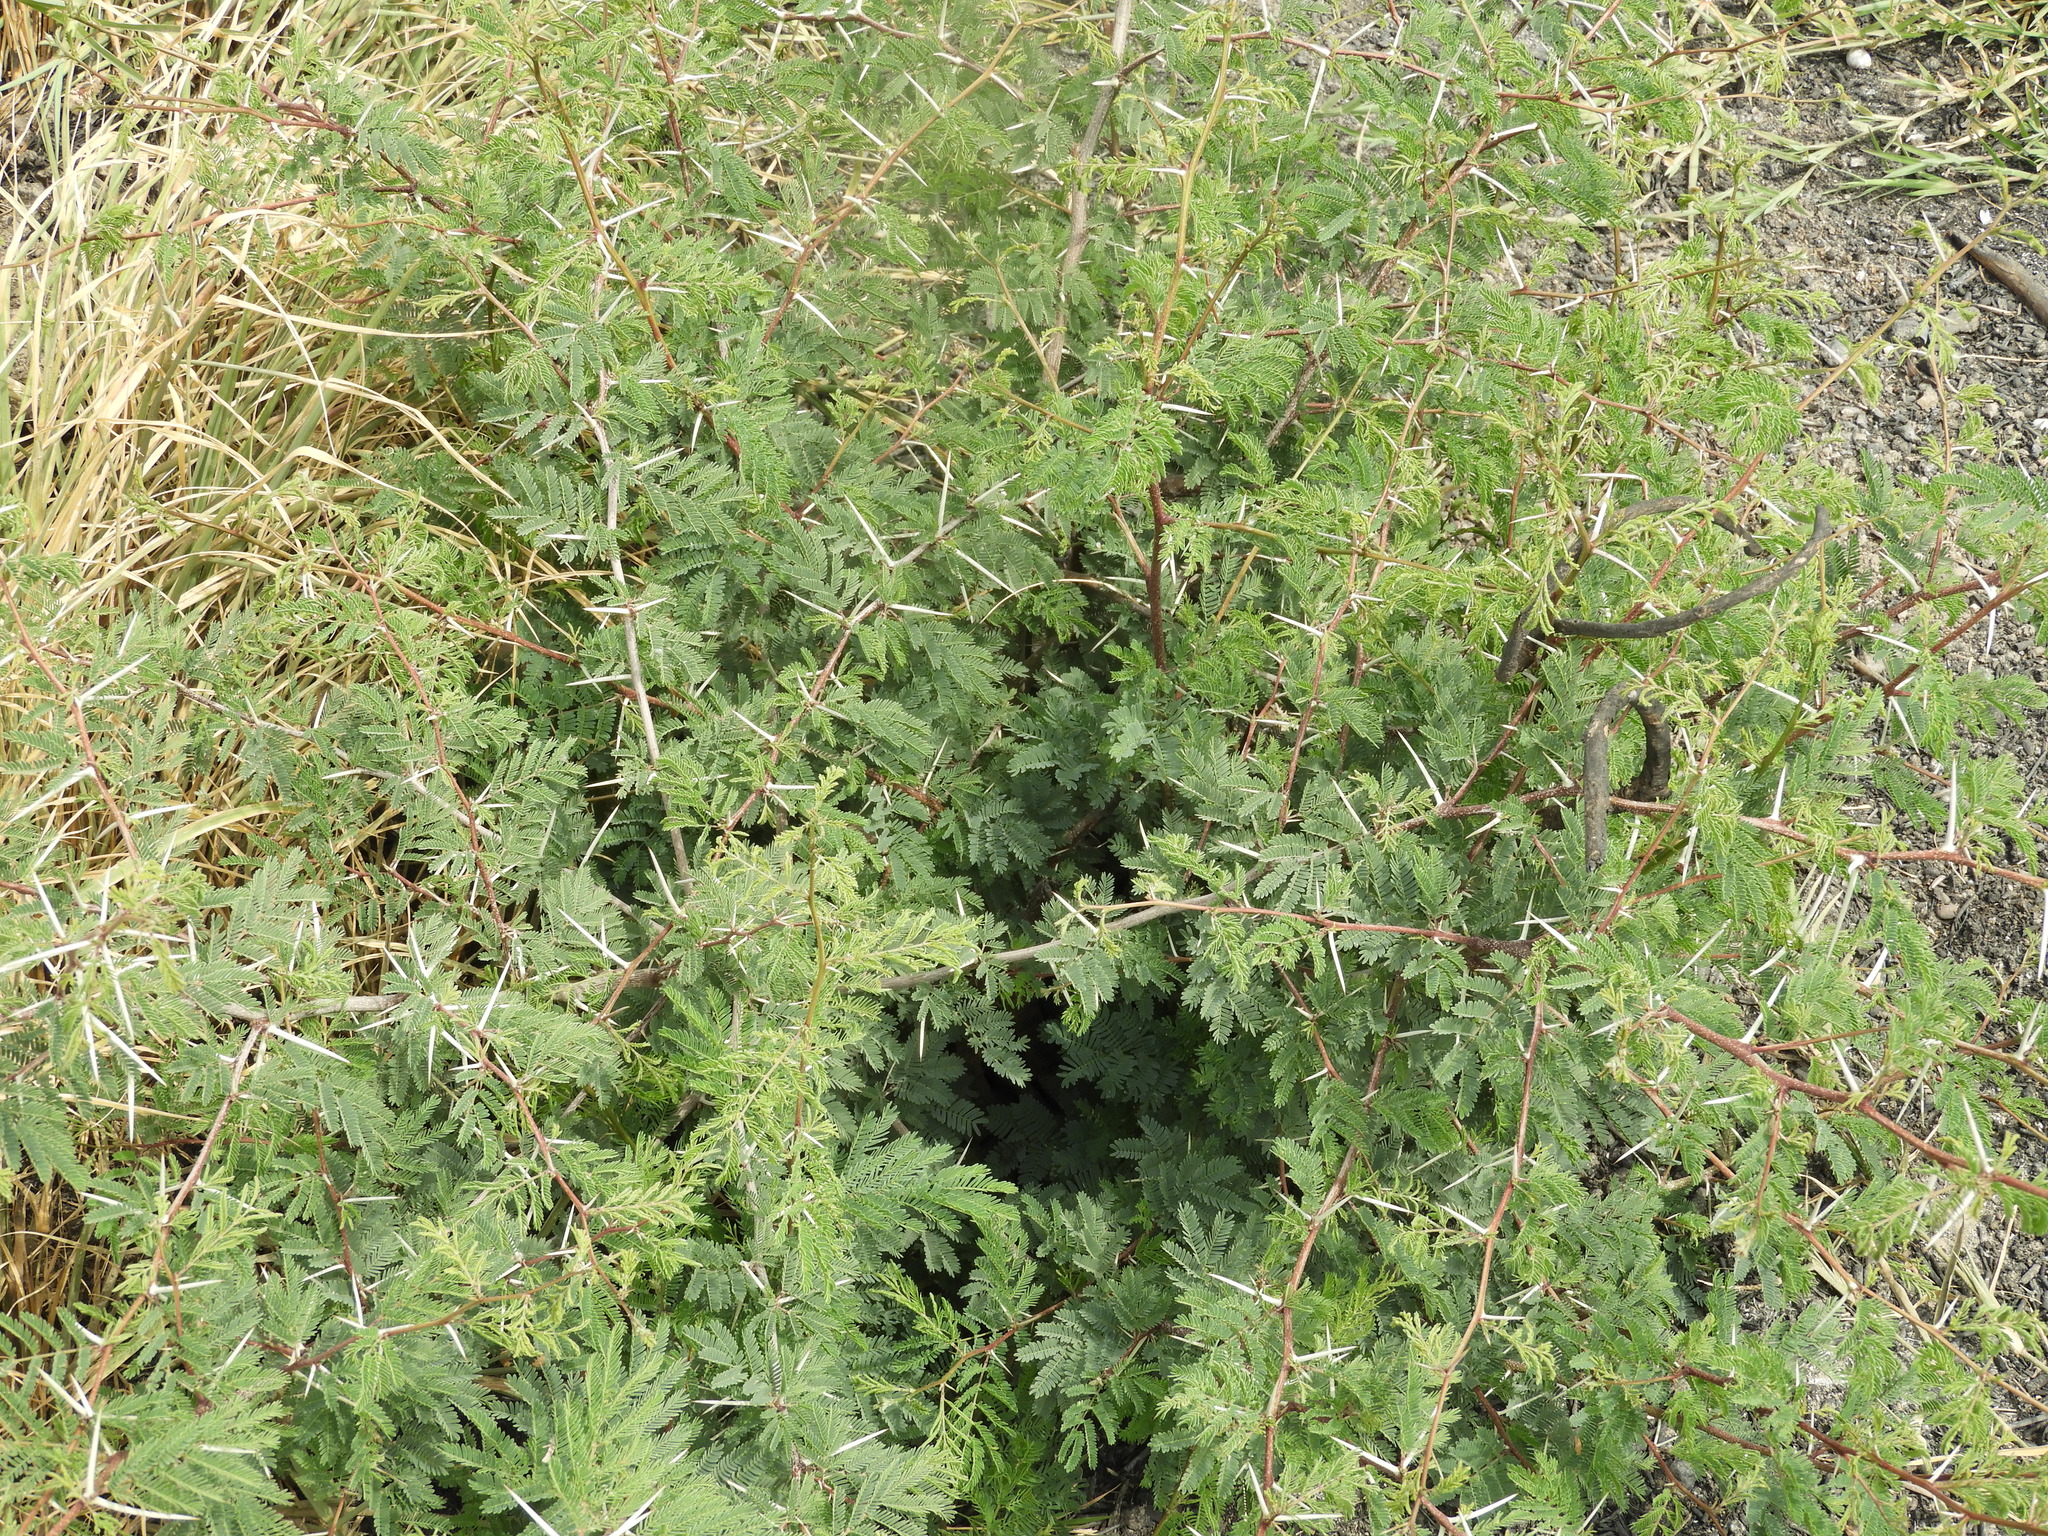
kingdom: Plantae
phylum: Tracheophyta
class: Magnoliopsida
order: Fabales
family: Fabaceae
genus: Vachellia
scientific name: Vachellia farnesiana
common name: Sweet acacia
